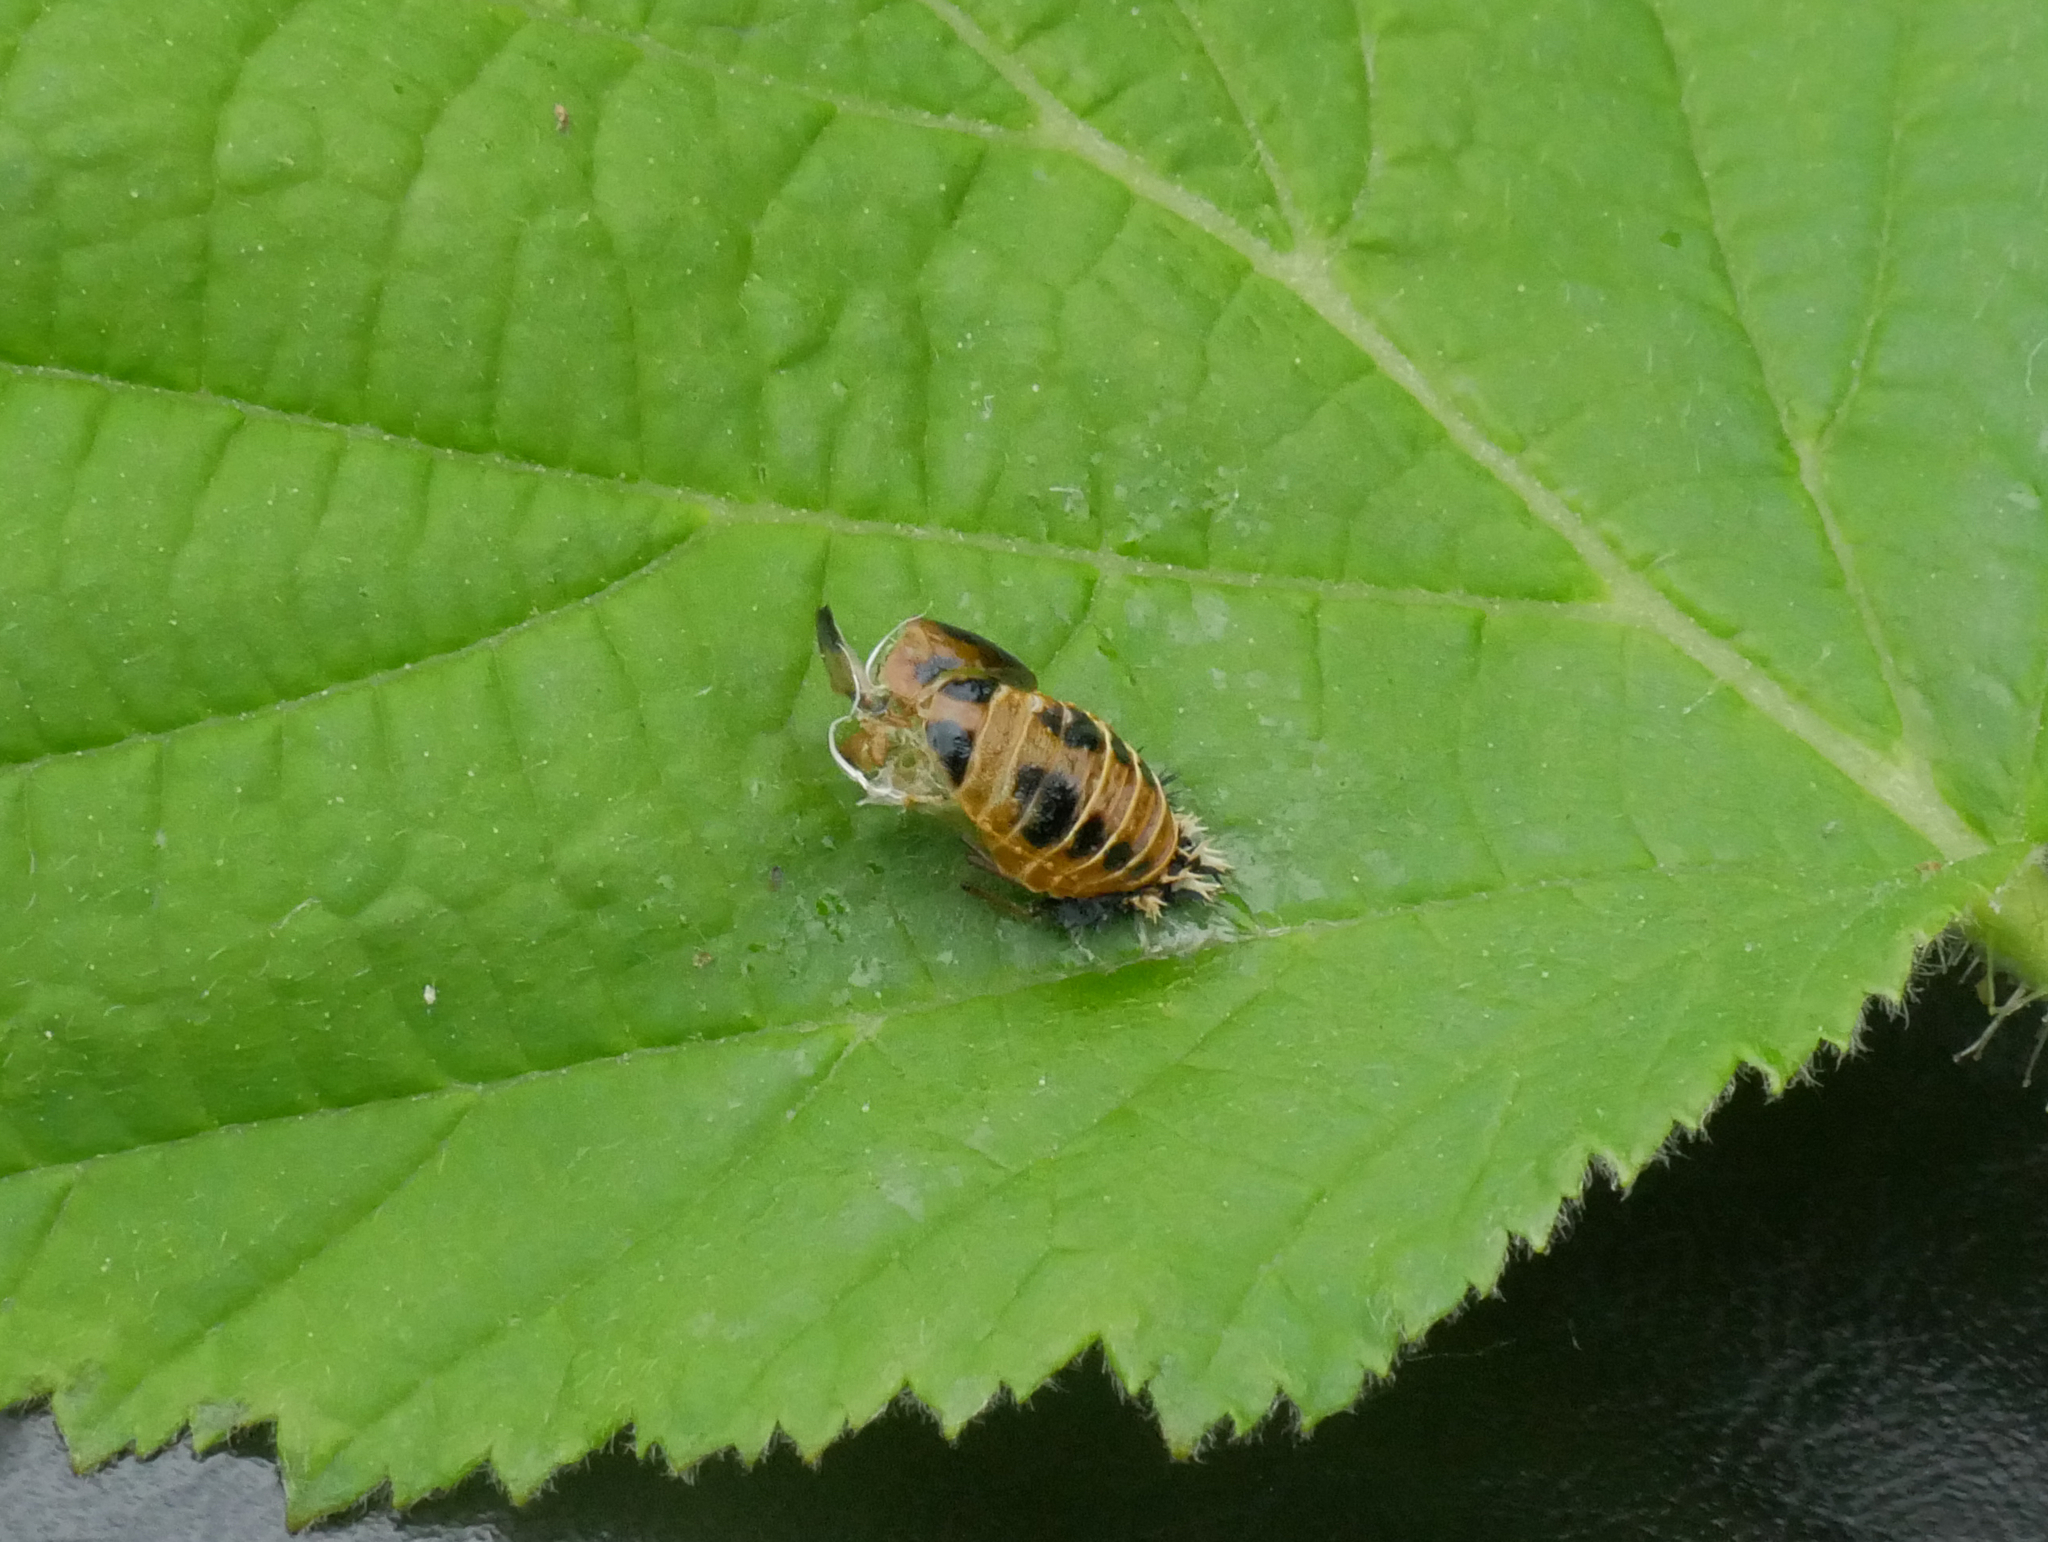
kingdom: Animalia
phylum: Arthropoda
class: Insecta
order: Coleoptera
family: Coccinellidae
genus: Harmonia
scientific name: Harmonia axyridis
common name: Harlequin ladybird
